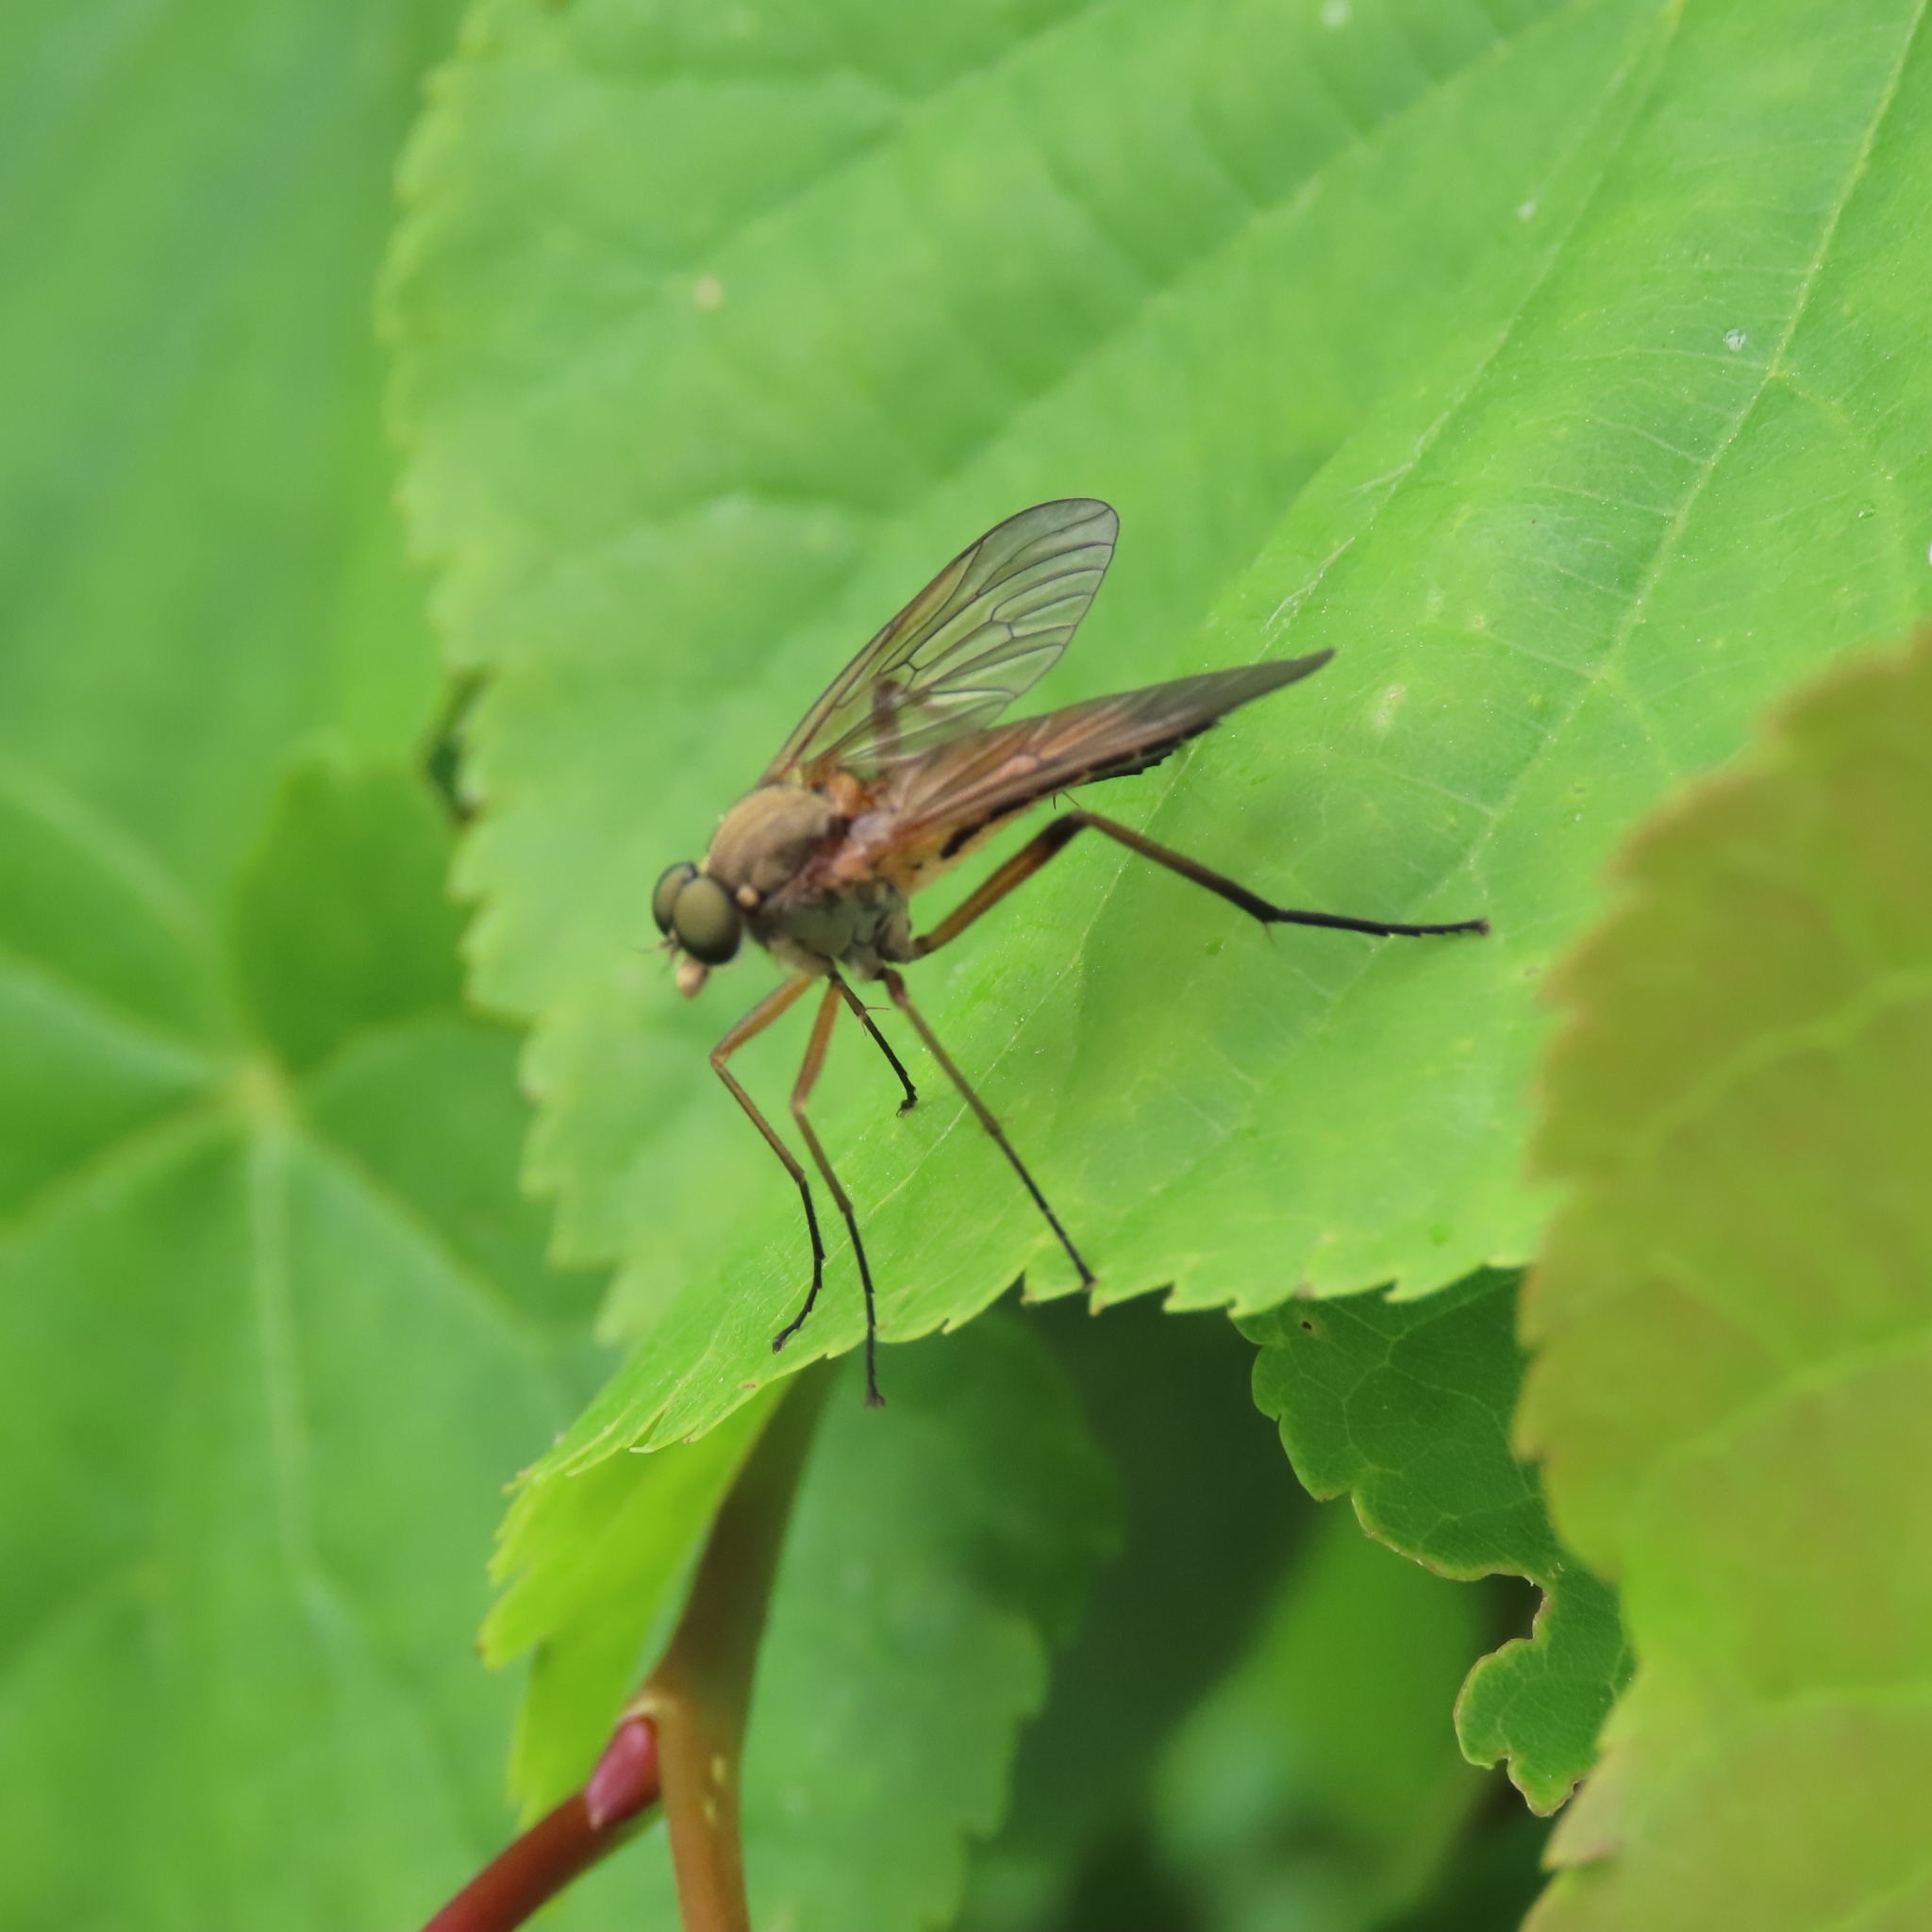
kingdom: Animalia
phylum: Arthropoda
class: Insecta
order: Diptera
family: Rhagionidae
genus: Rhagio
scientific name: Rhagio tringaria
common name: Marsh snipefly
